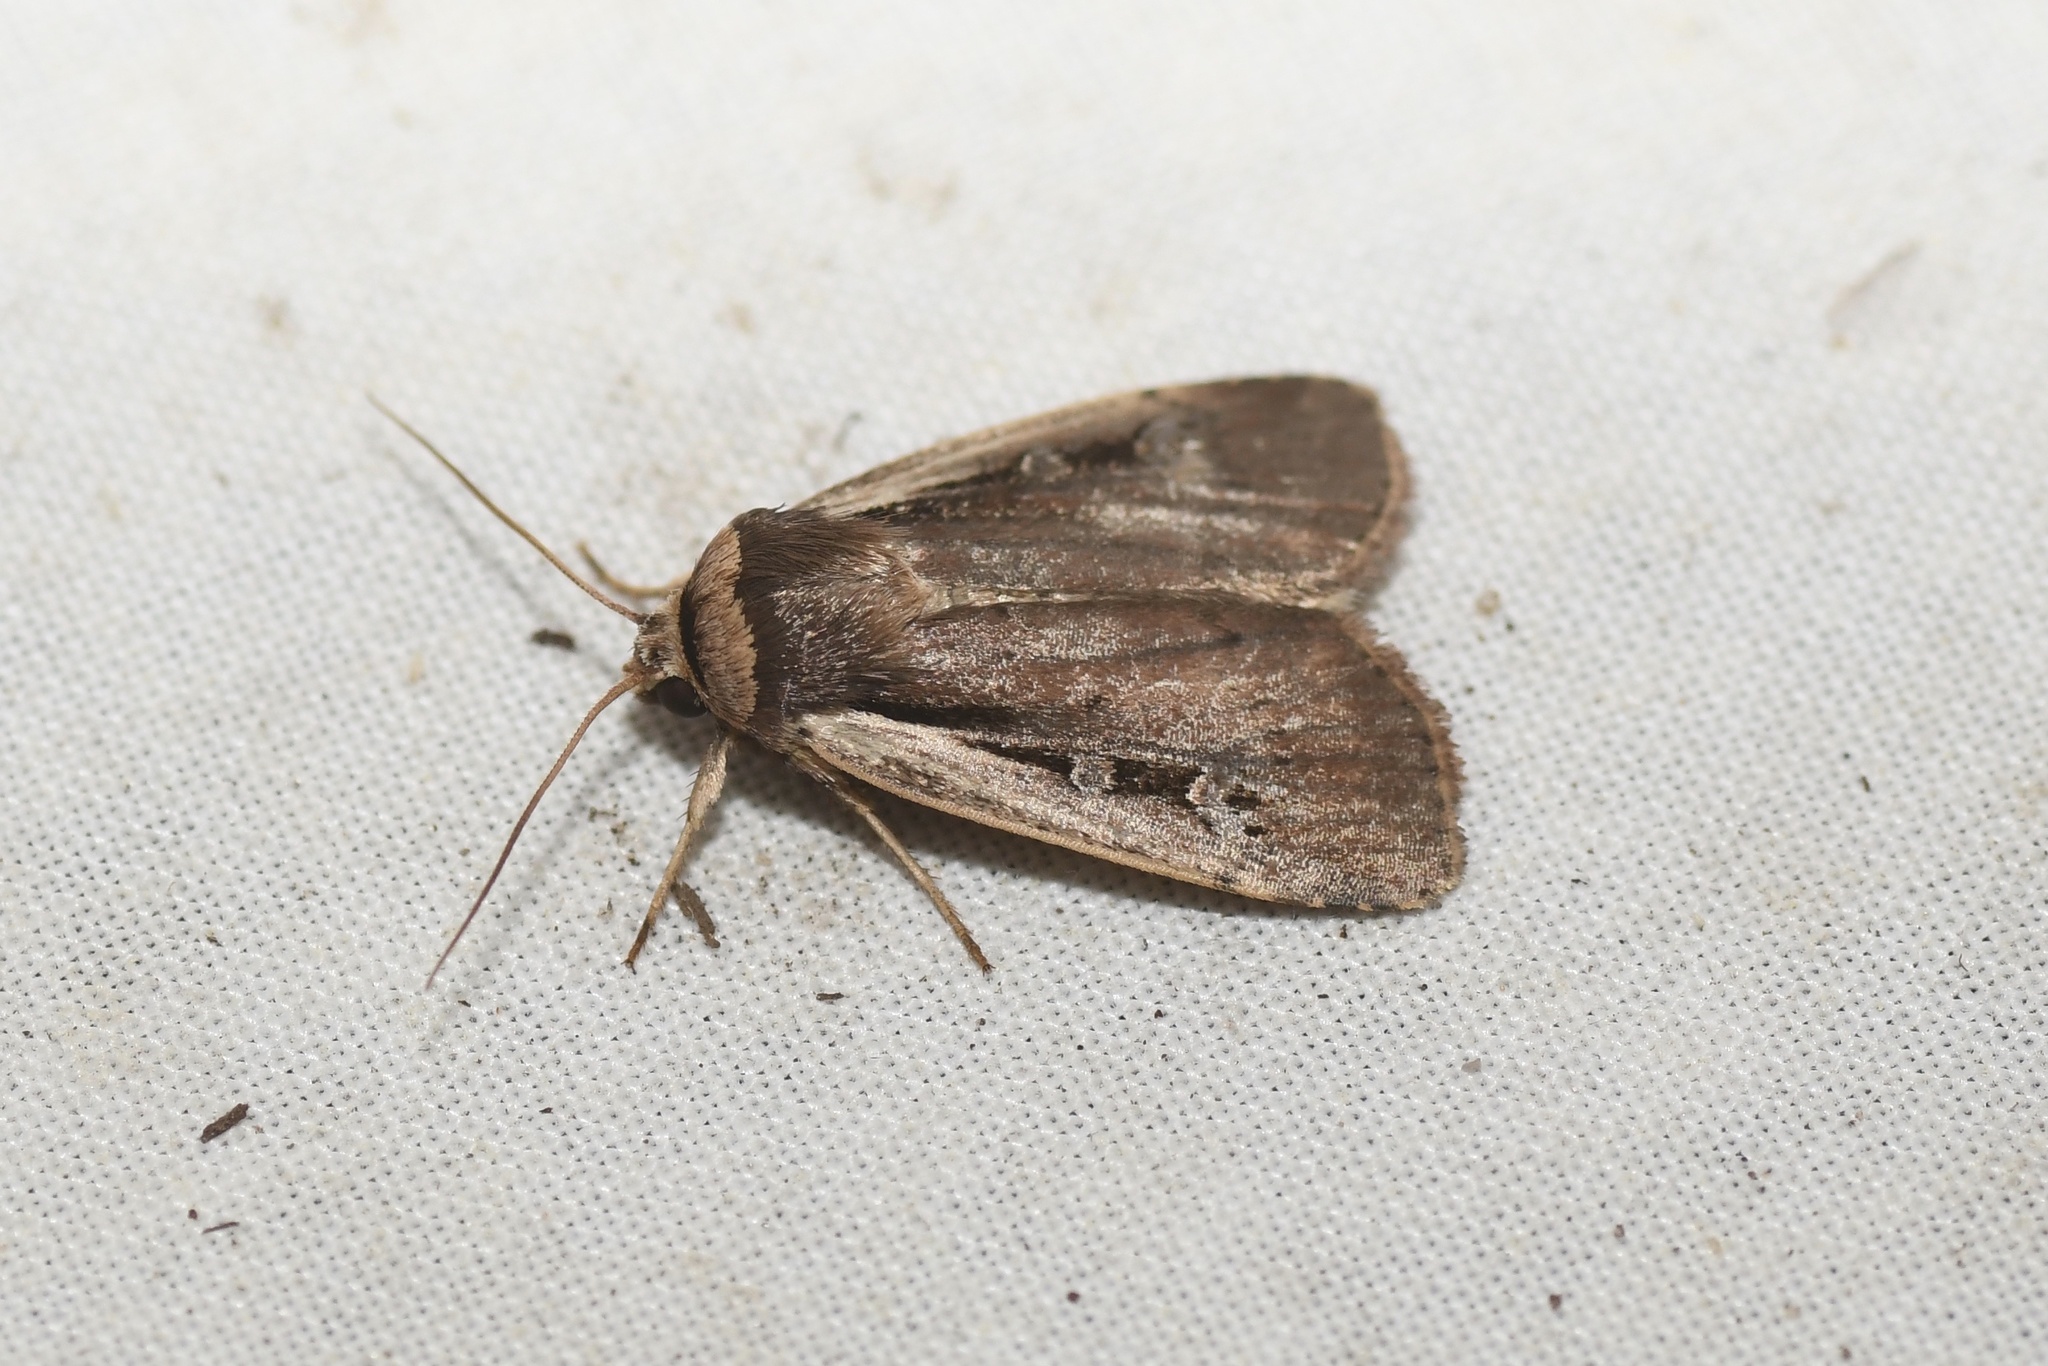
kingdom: Animalia
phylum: Arthropoda
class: Insecta
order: Lepidoptera
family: Noctuidae
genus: Ochropleura
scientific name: Ochropleura implecta
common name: Flame-shouldered dart
